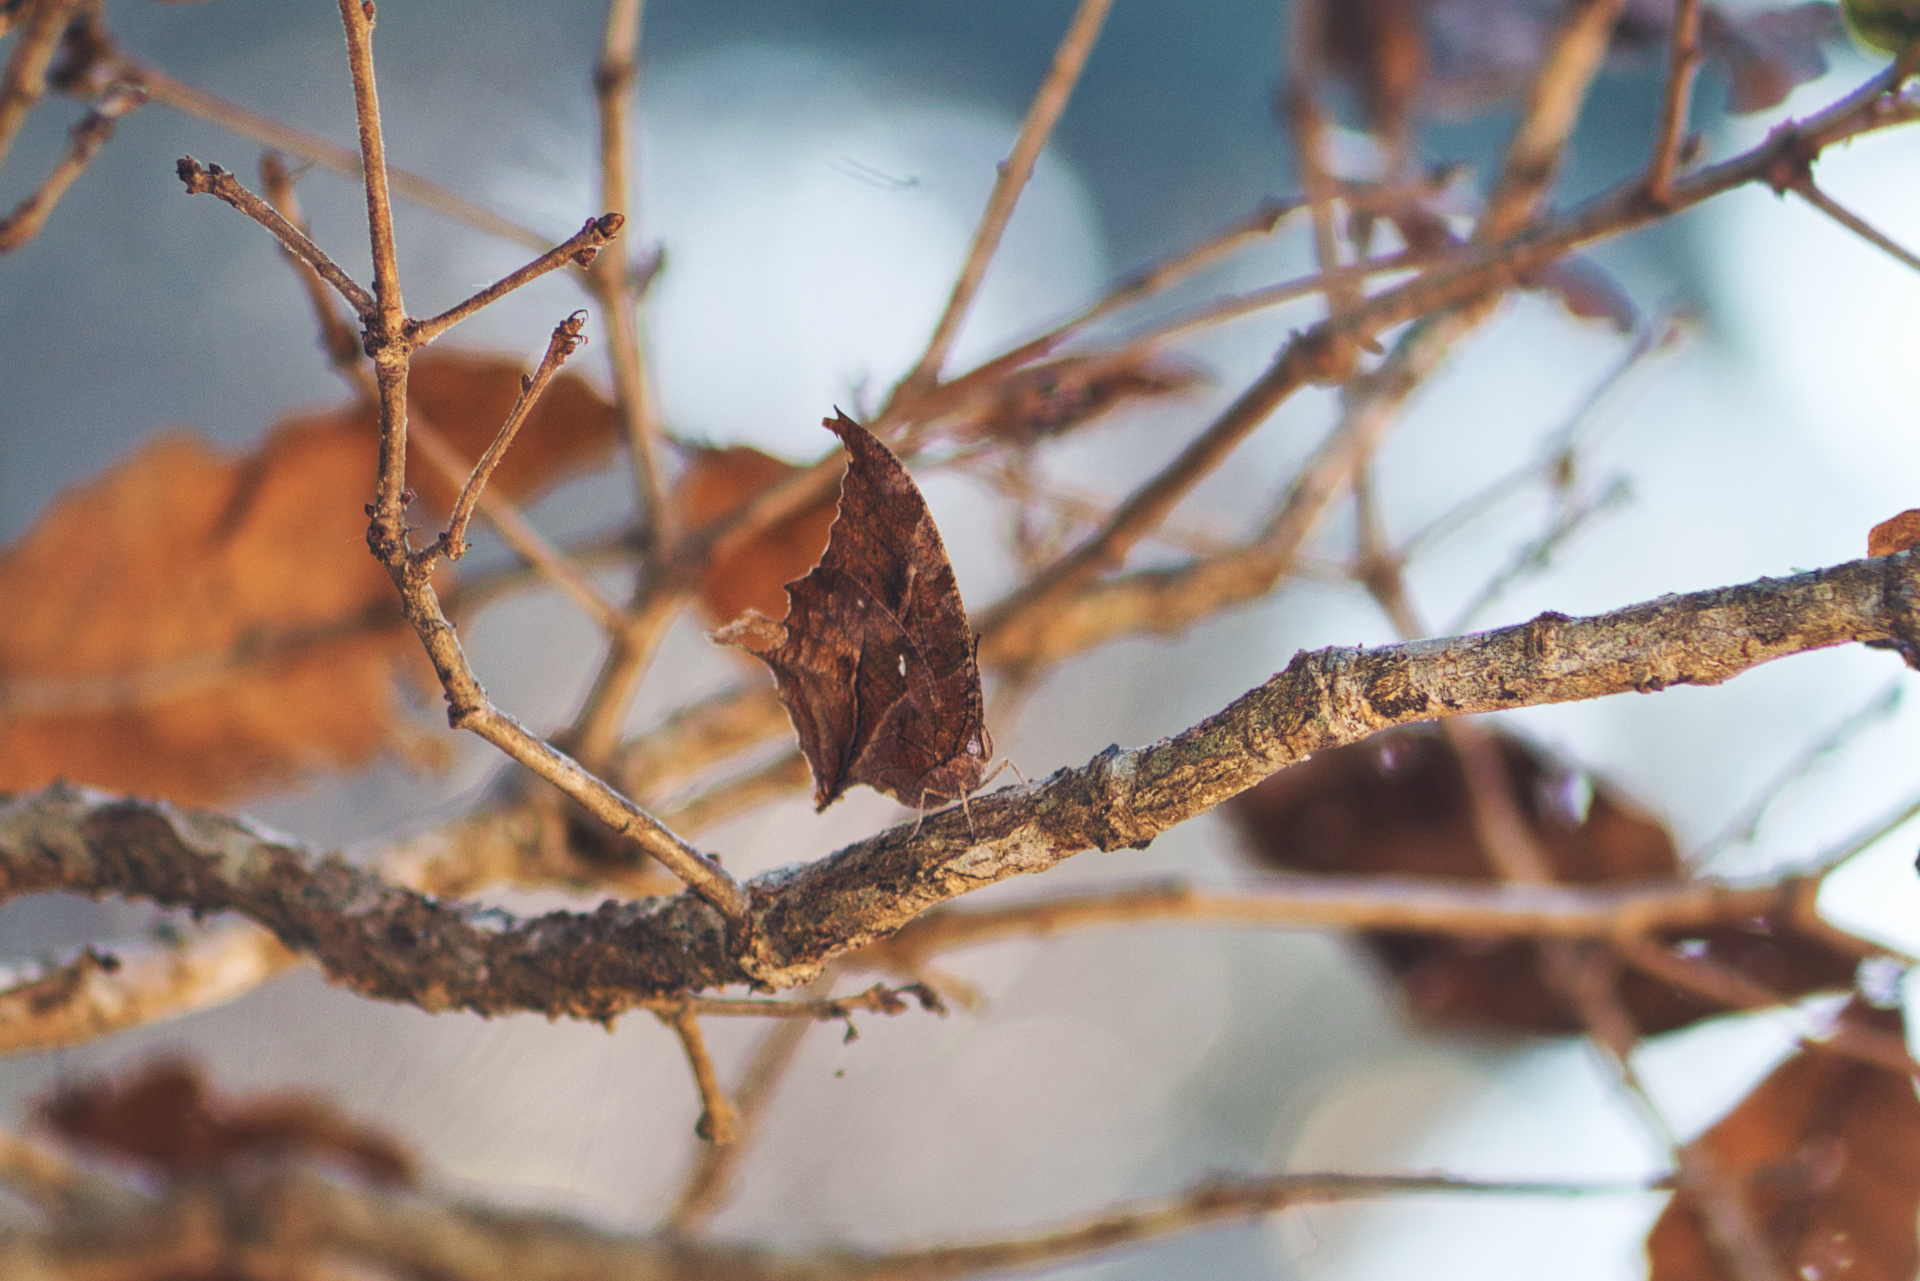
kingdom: Animalia
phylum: Arthropoda
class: Insecta
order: Lepidoptera
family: Nymphalidae
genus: Consul
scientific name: Consul excellens
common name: Black-veined leafwing
